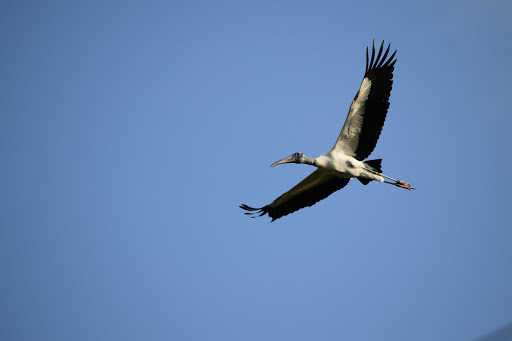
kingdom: Animalia
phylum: Chordata
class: Aves
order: Ciconiiformes
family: Ciconiidae
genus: Mycteria
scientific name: Mycteria americana
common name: Wood stork
